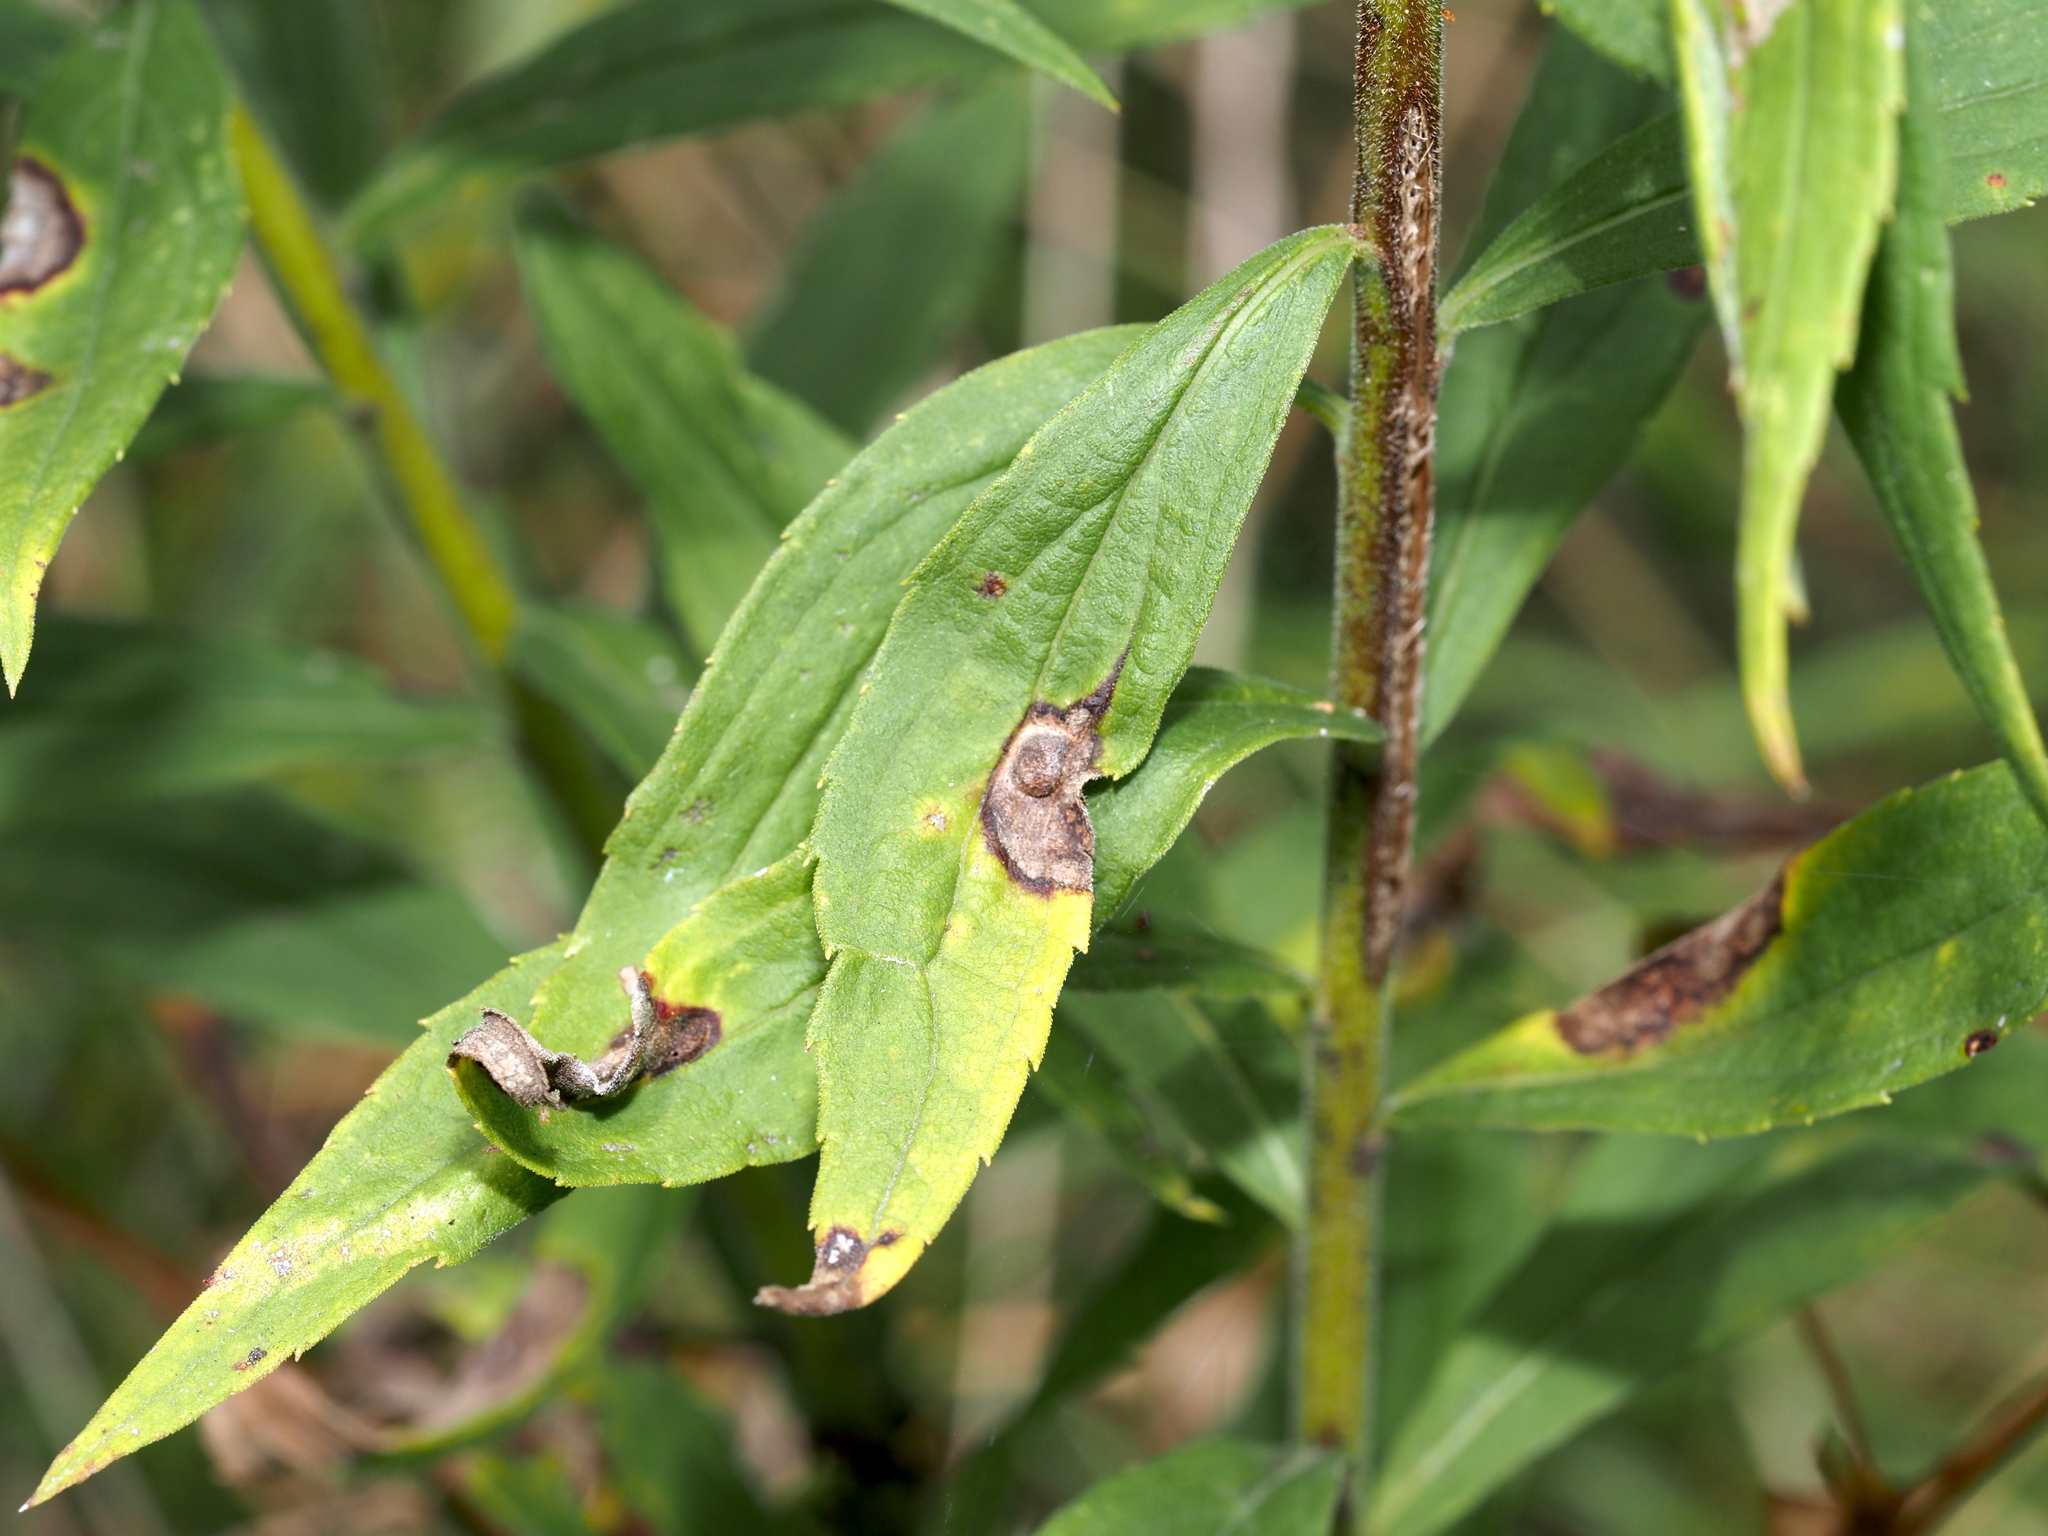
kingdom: Animalia
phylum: Arthropoda
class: Insecta
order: Diptera
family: Cecidomyiidae
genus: Asphondylia
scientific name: Asphondylia solidaginis
